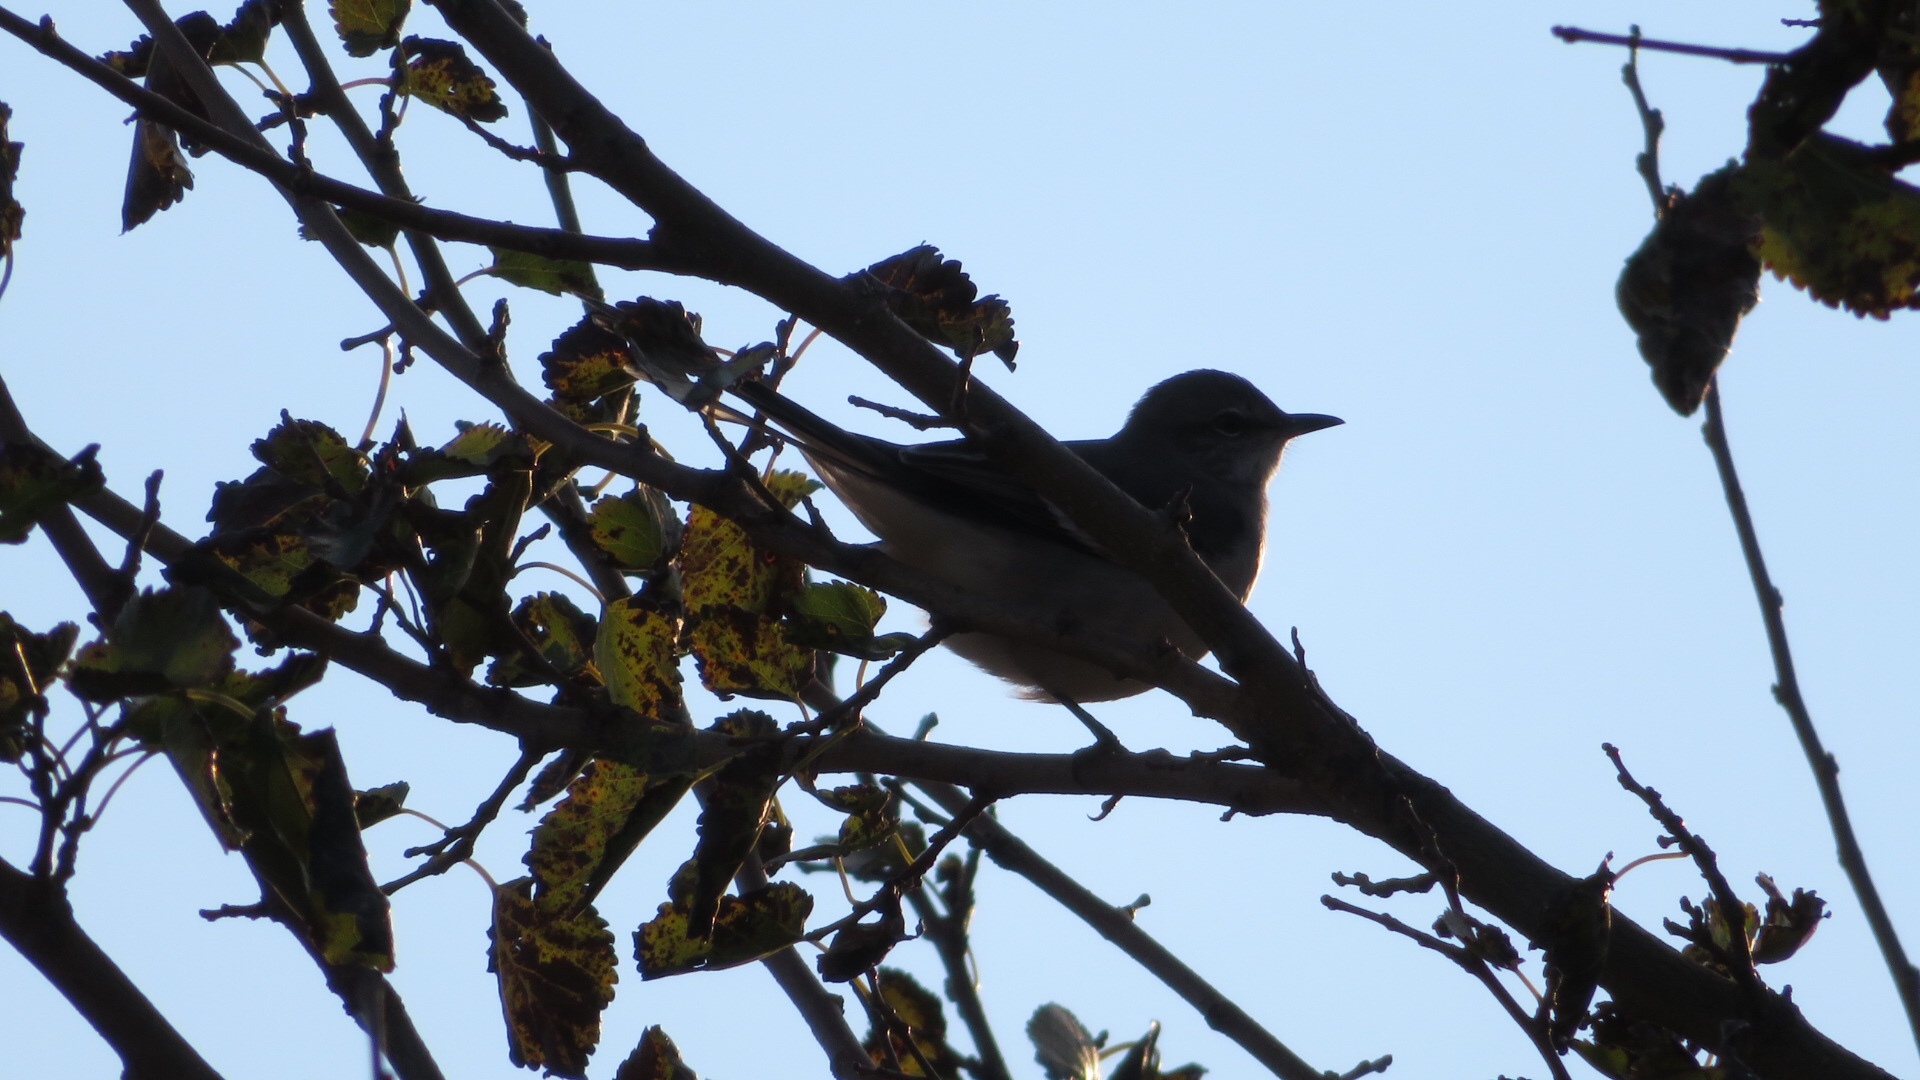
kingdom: Animalia
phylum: Chordata
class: Aves
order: Passeriformes
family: Mimidae
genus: Mimus
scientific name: Mimus polyglottos
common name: Northern mockingbird
